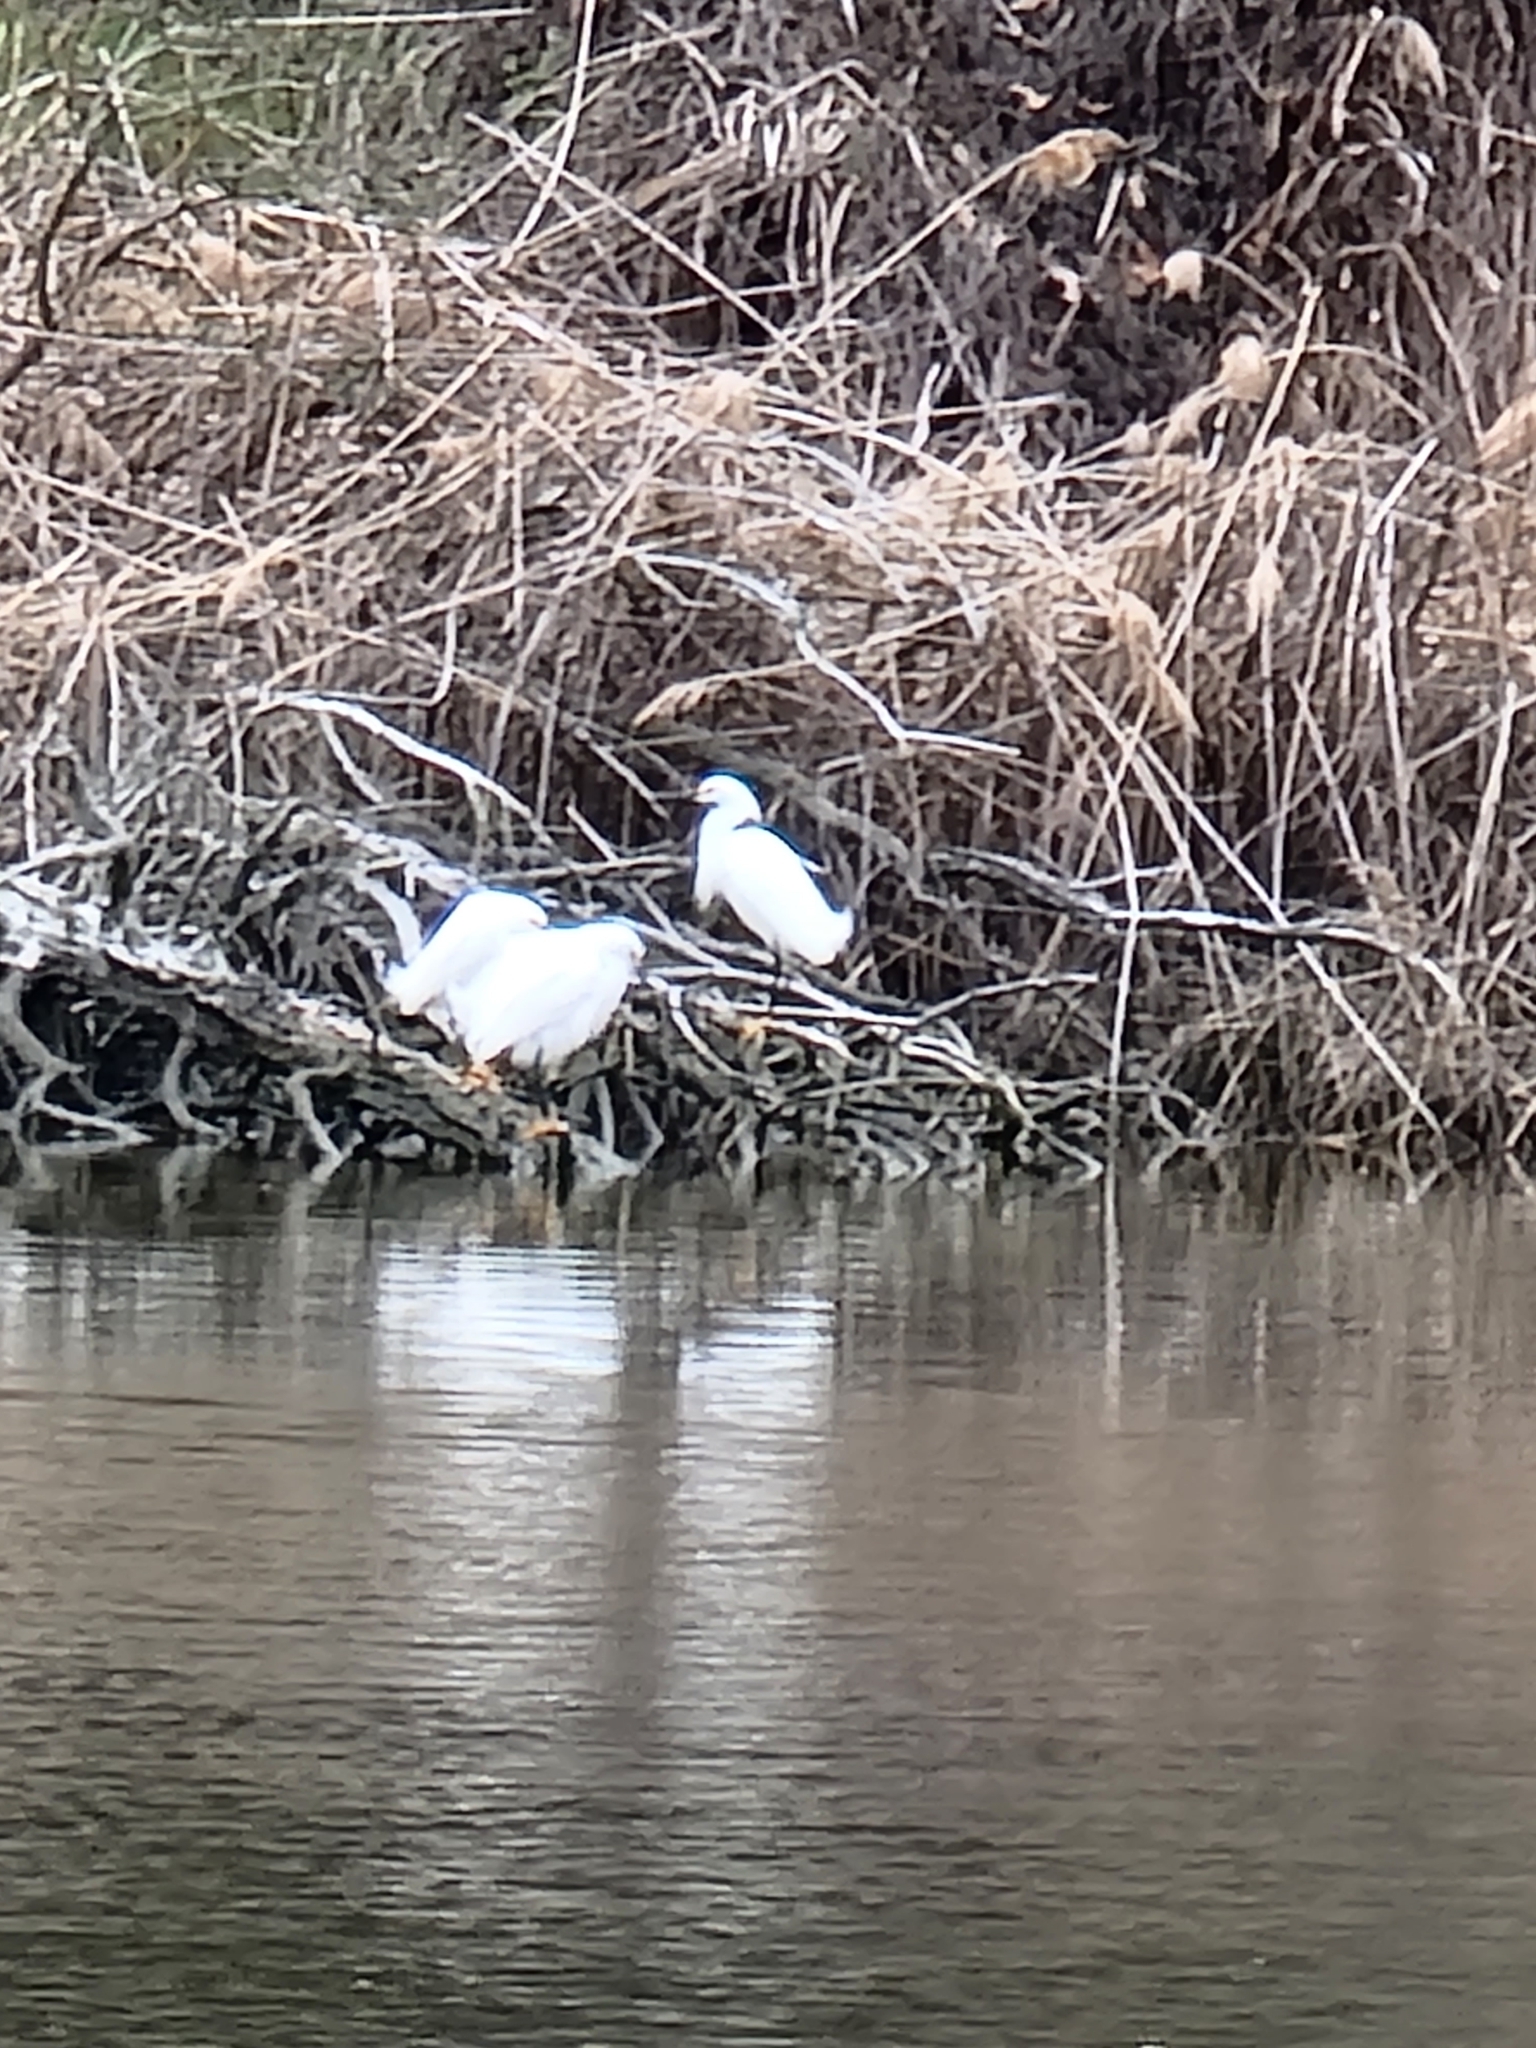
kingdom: Animalia
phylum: Chordata
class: Aves
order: Pelecaniformes
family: Ardeidae
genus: Egretta
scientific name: Egretta thula
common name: Snowy egret
